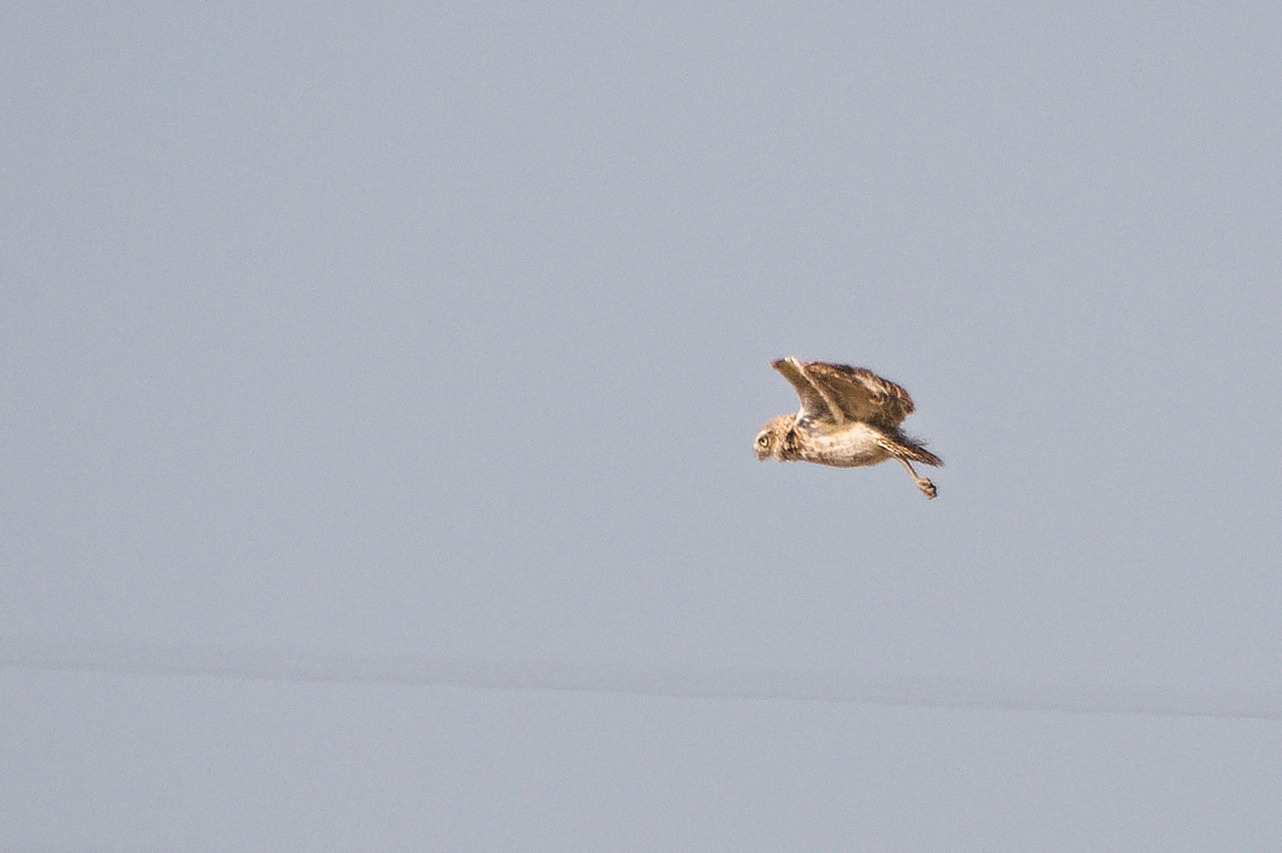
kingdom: Animalia
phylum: Chordata
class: Aves
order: Strigiformes
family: Strigidae
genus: Athene
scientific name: Athene cunicularia
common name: Burrowing owl
